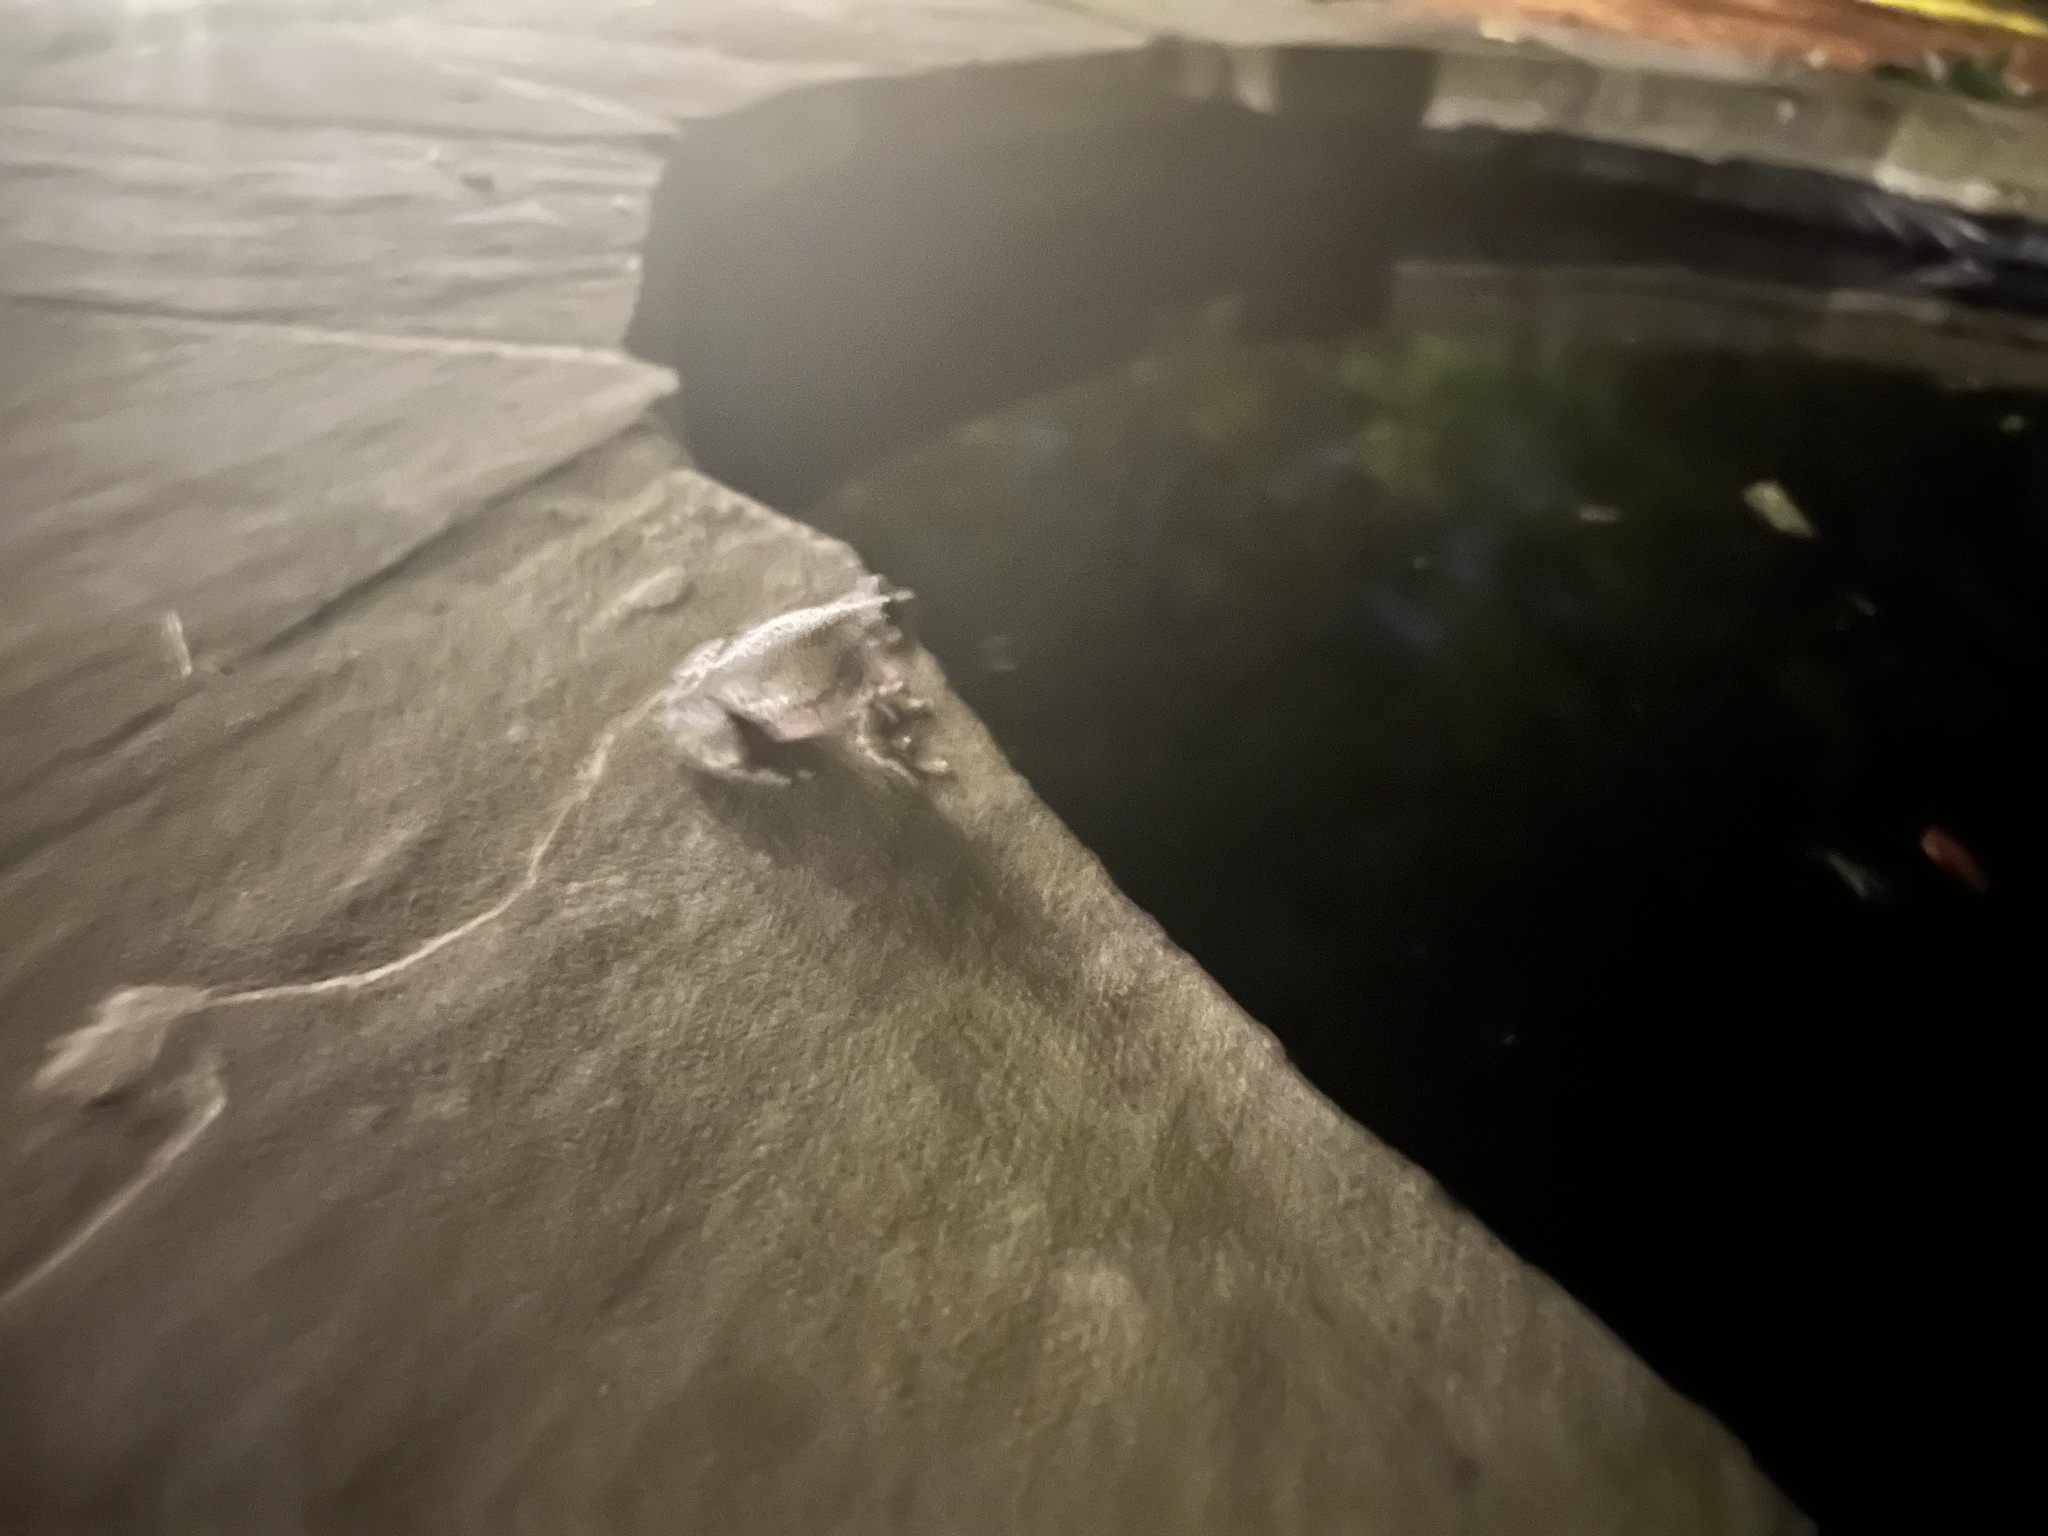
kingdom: Animalia
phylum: Chordata
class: Amphibia
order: Anura
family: Hylidae
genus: Dryophytes
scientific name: Dryophytes chrysoscelis
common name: Cope's gray treefrog
